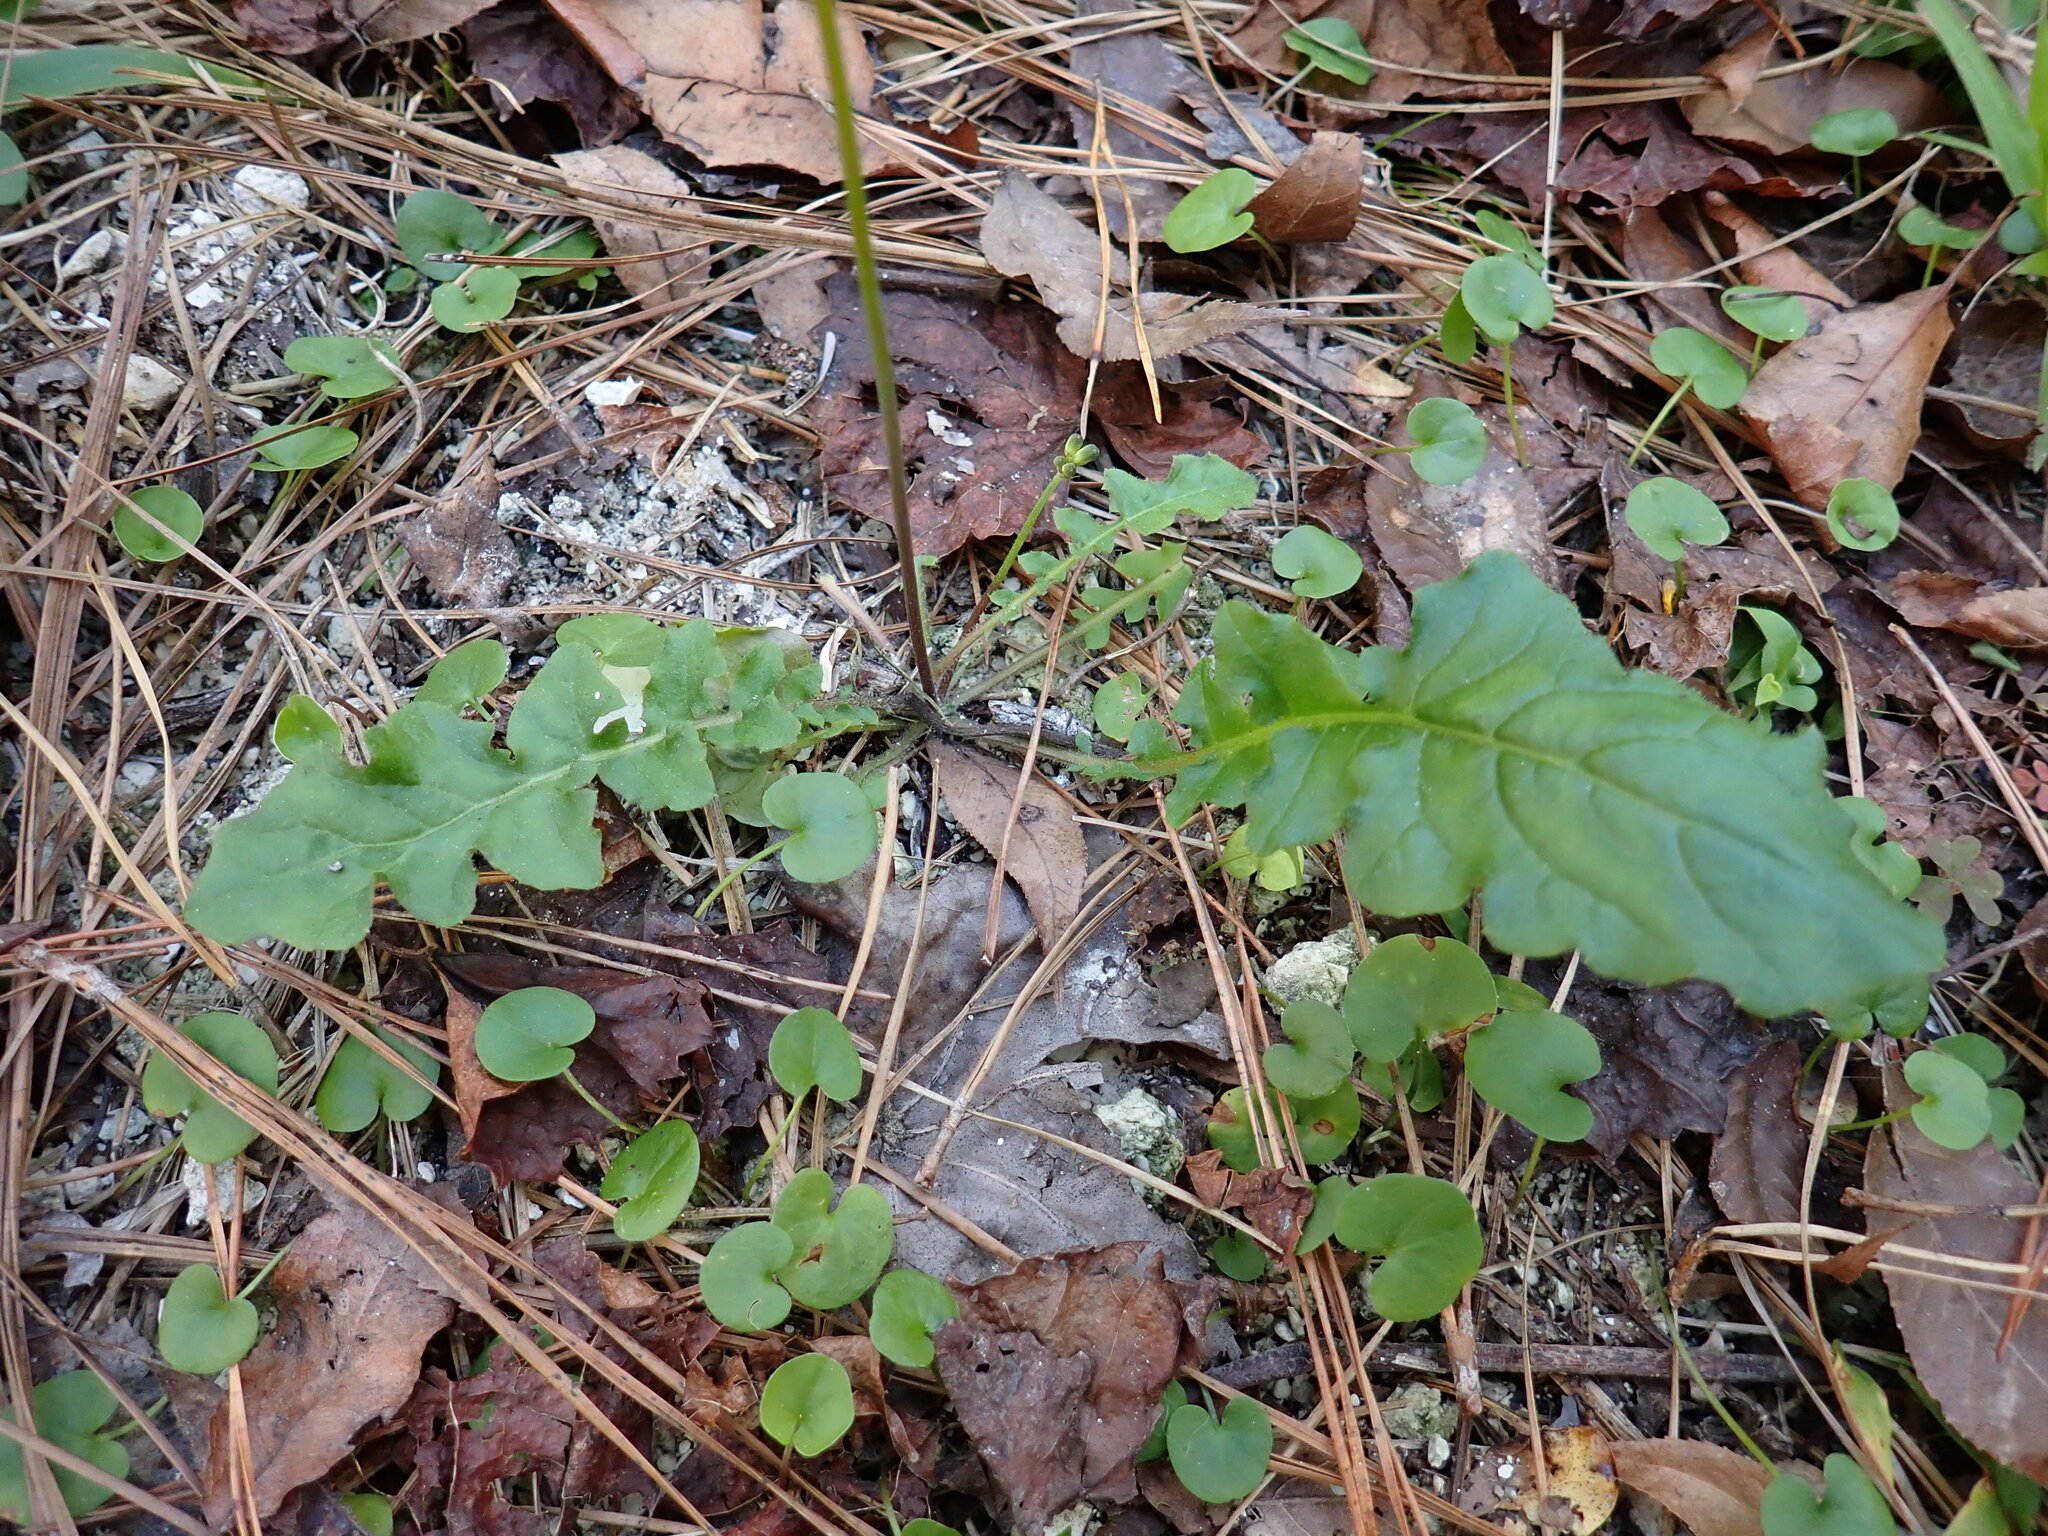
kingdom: Plantae
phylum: Tracheophyta
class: Magnoliopsida
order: Asterales
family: Asteraceae
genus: Youngia
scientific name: Youngia japonica
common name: Oriental false hawksbeard
